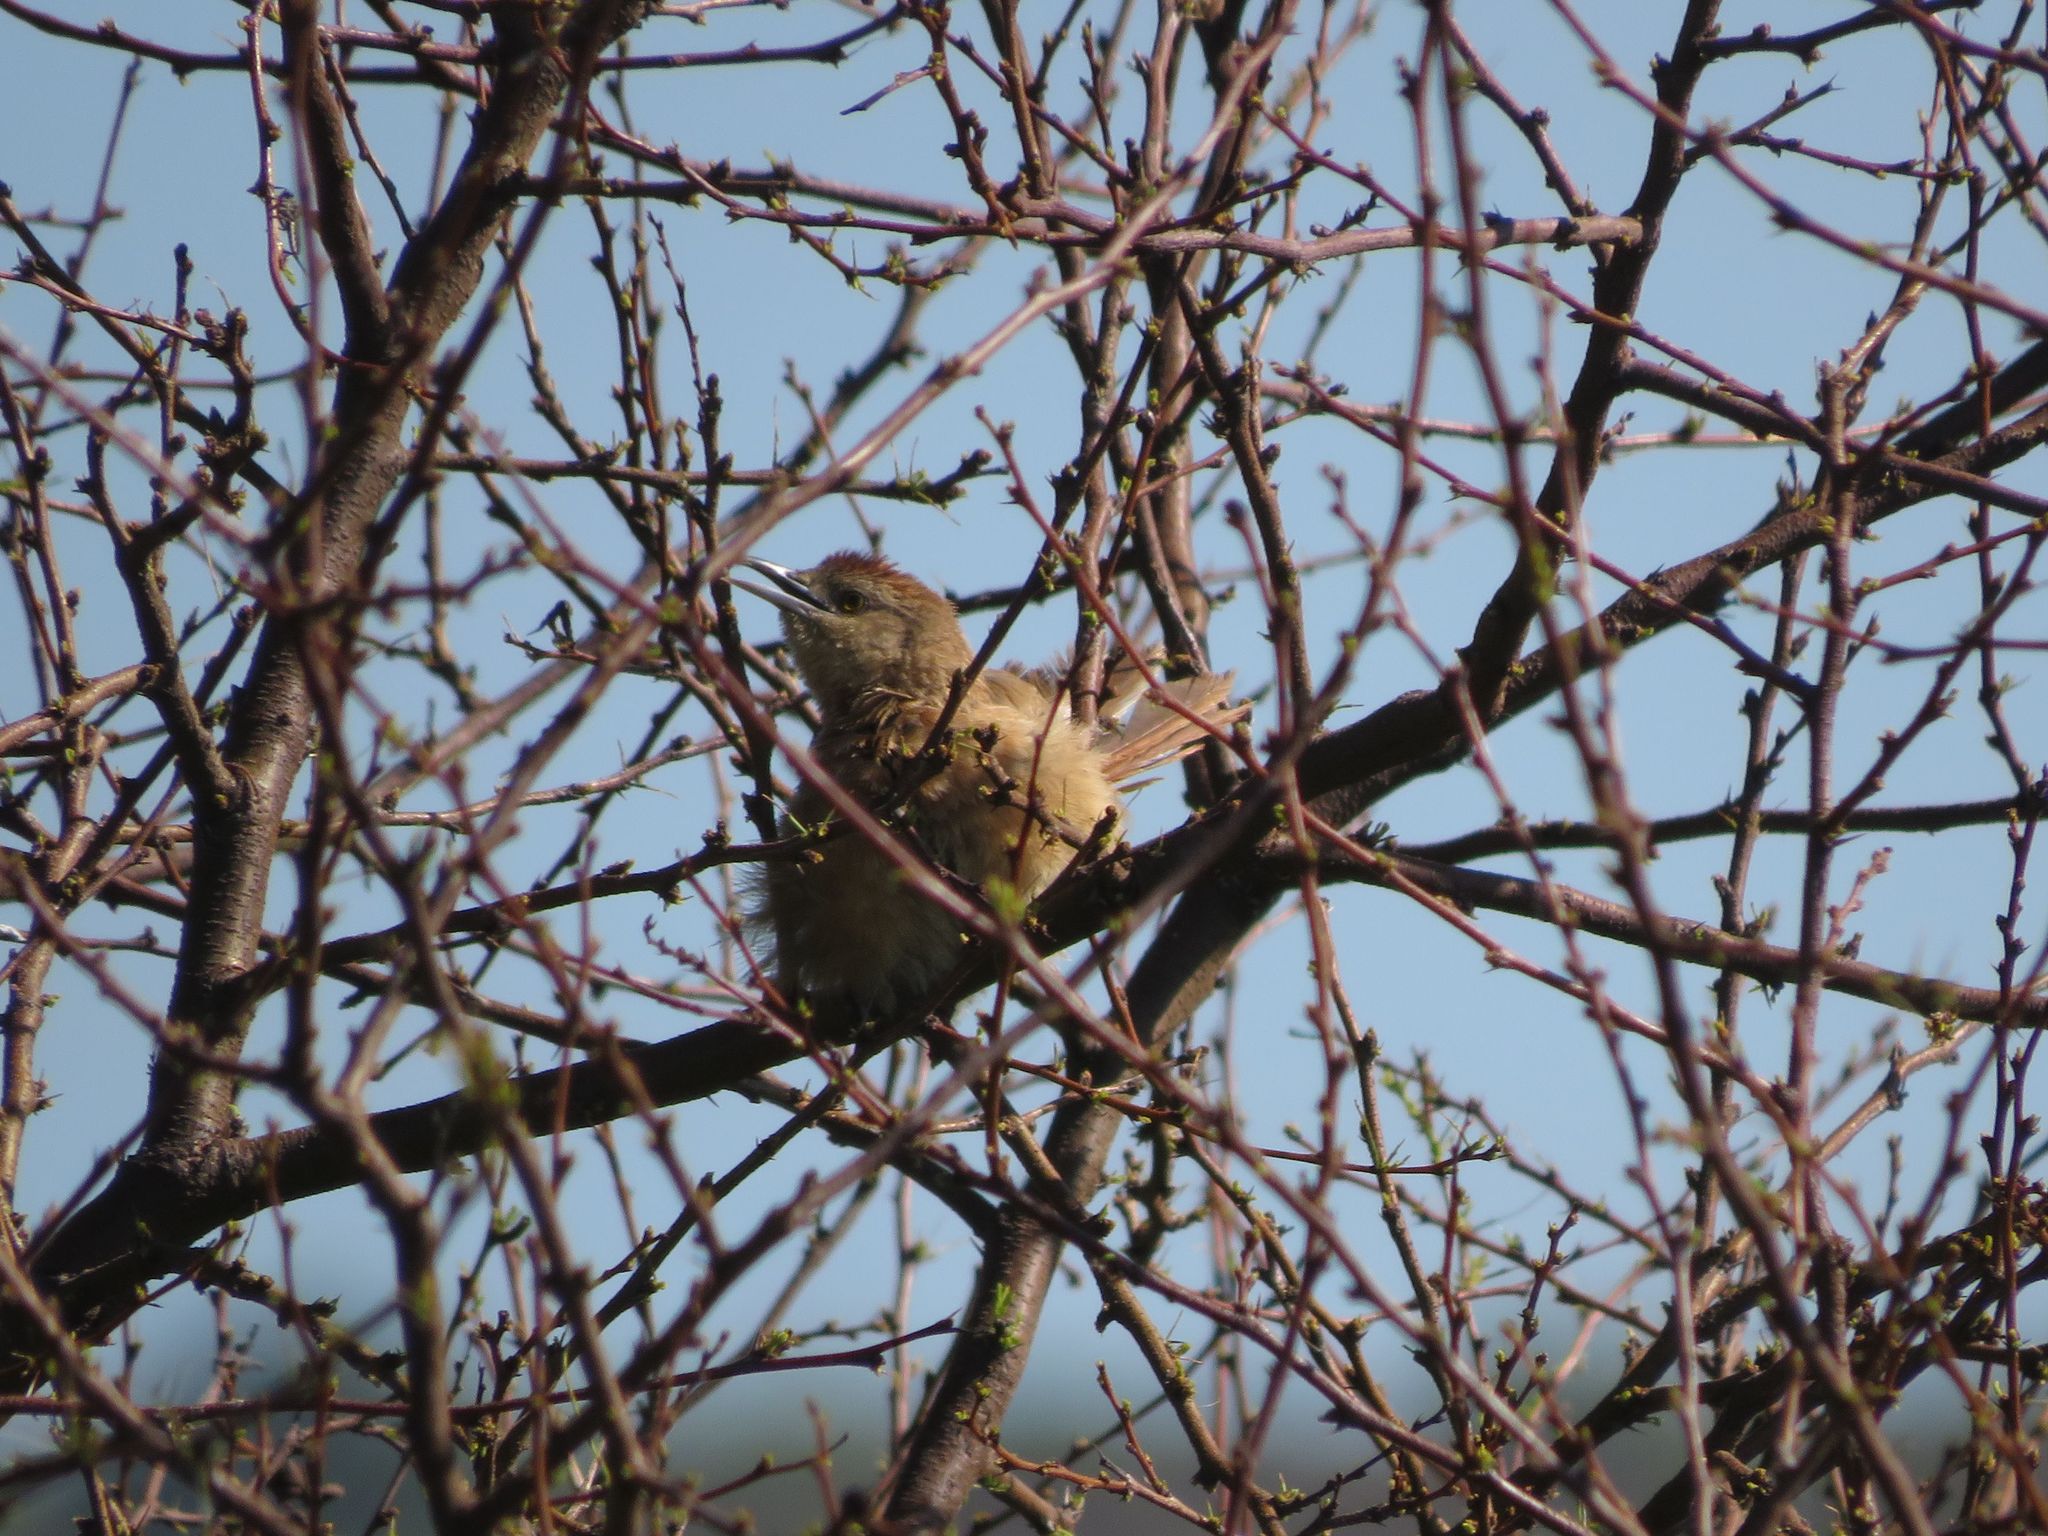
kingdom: Animalia
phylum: Chordata
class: Aves
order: Passeriformes
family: Furnariidae
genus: Phacellodomus
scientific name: Phacellodomus striaticollis
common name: Freckle-breasted thornbird
